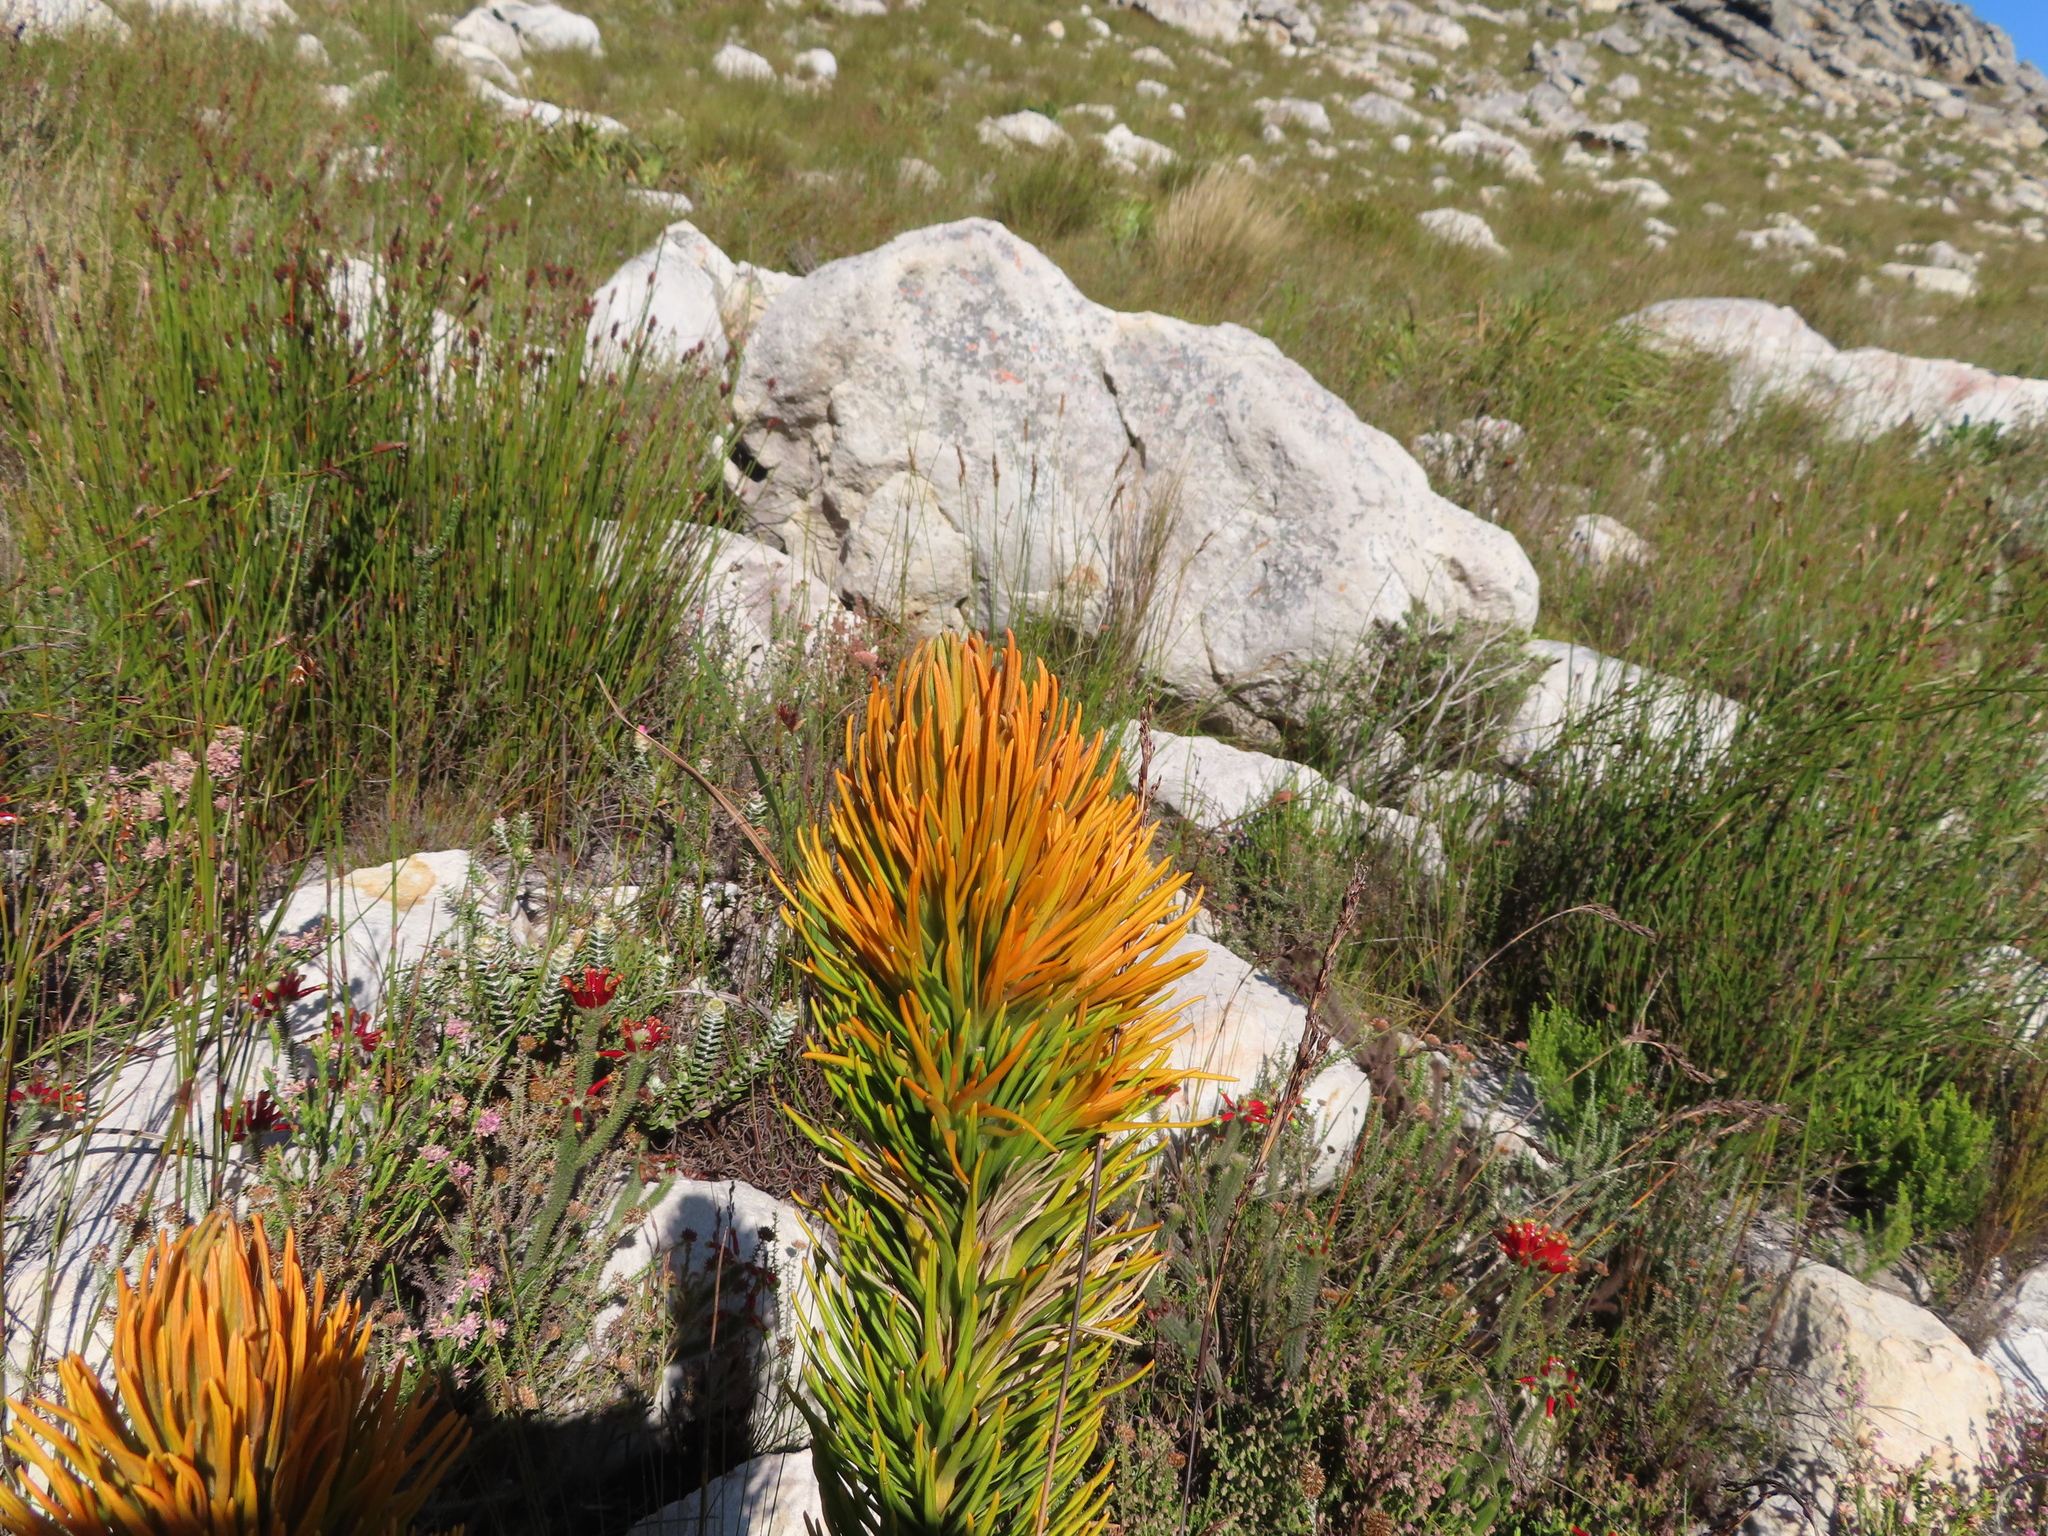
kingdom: Plantae
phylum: Tracheophyta
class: Magnoliopsida
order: Lamiales
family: Stilbaceae
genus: Retzia
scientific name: Retzia capensis
